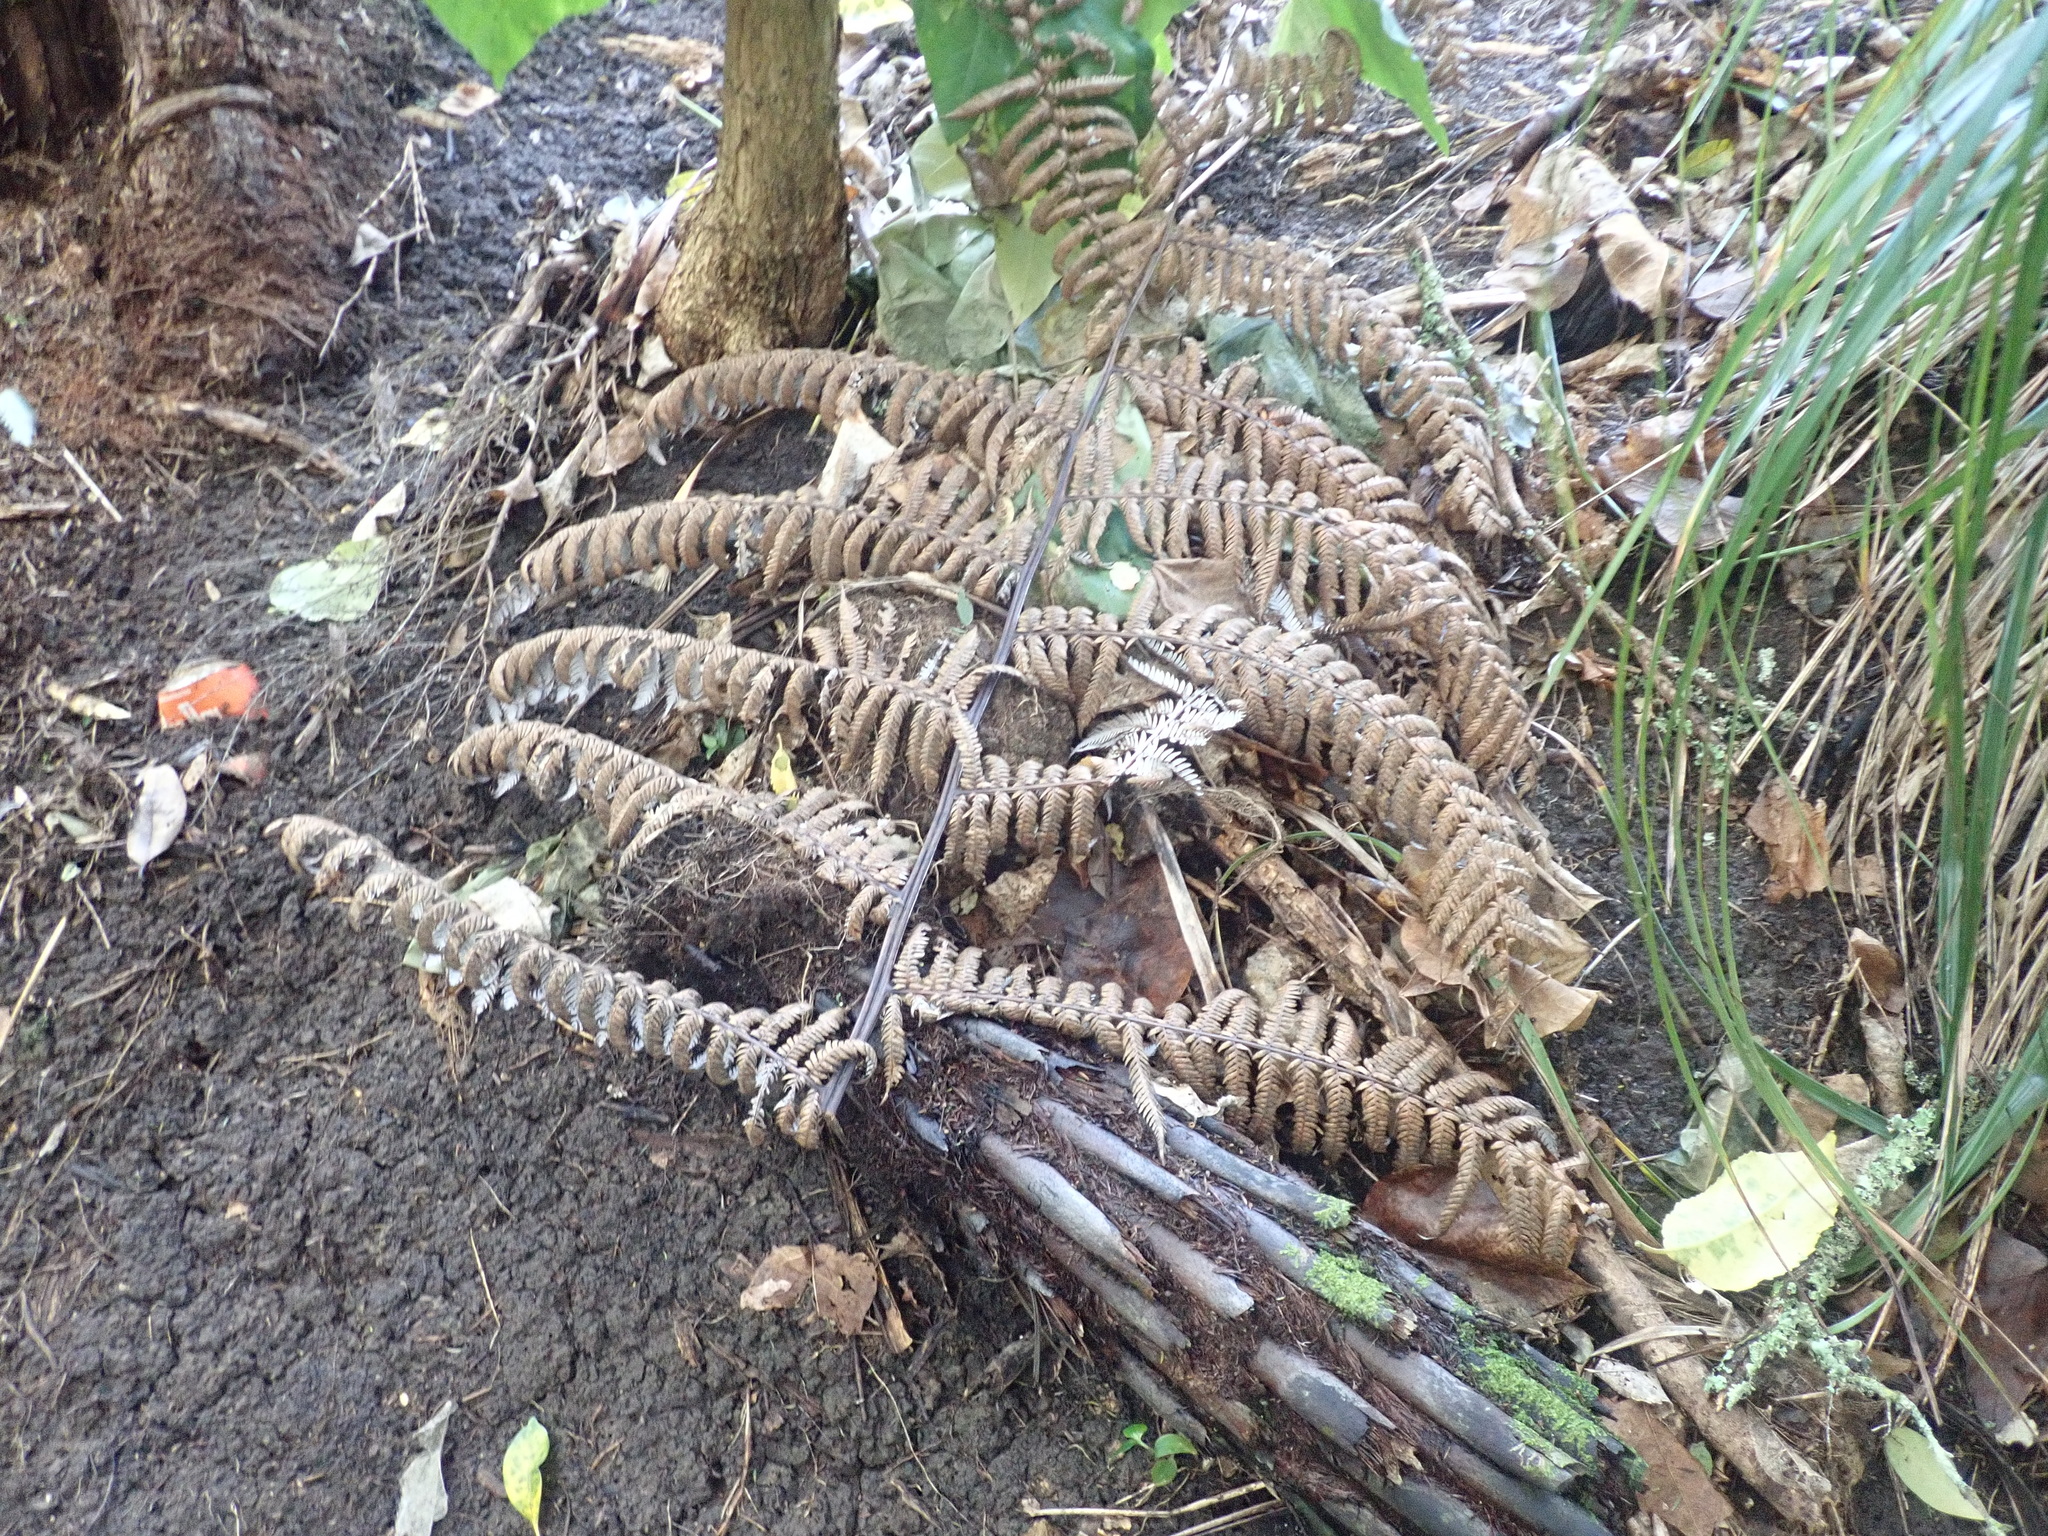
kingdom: Plantae
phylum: Tracheophyta
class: Polypodiopsida
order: Cyatheales
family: Cyatheaceae
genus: Alsophila
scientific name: Alsophila dealbata
